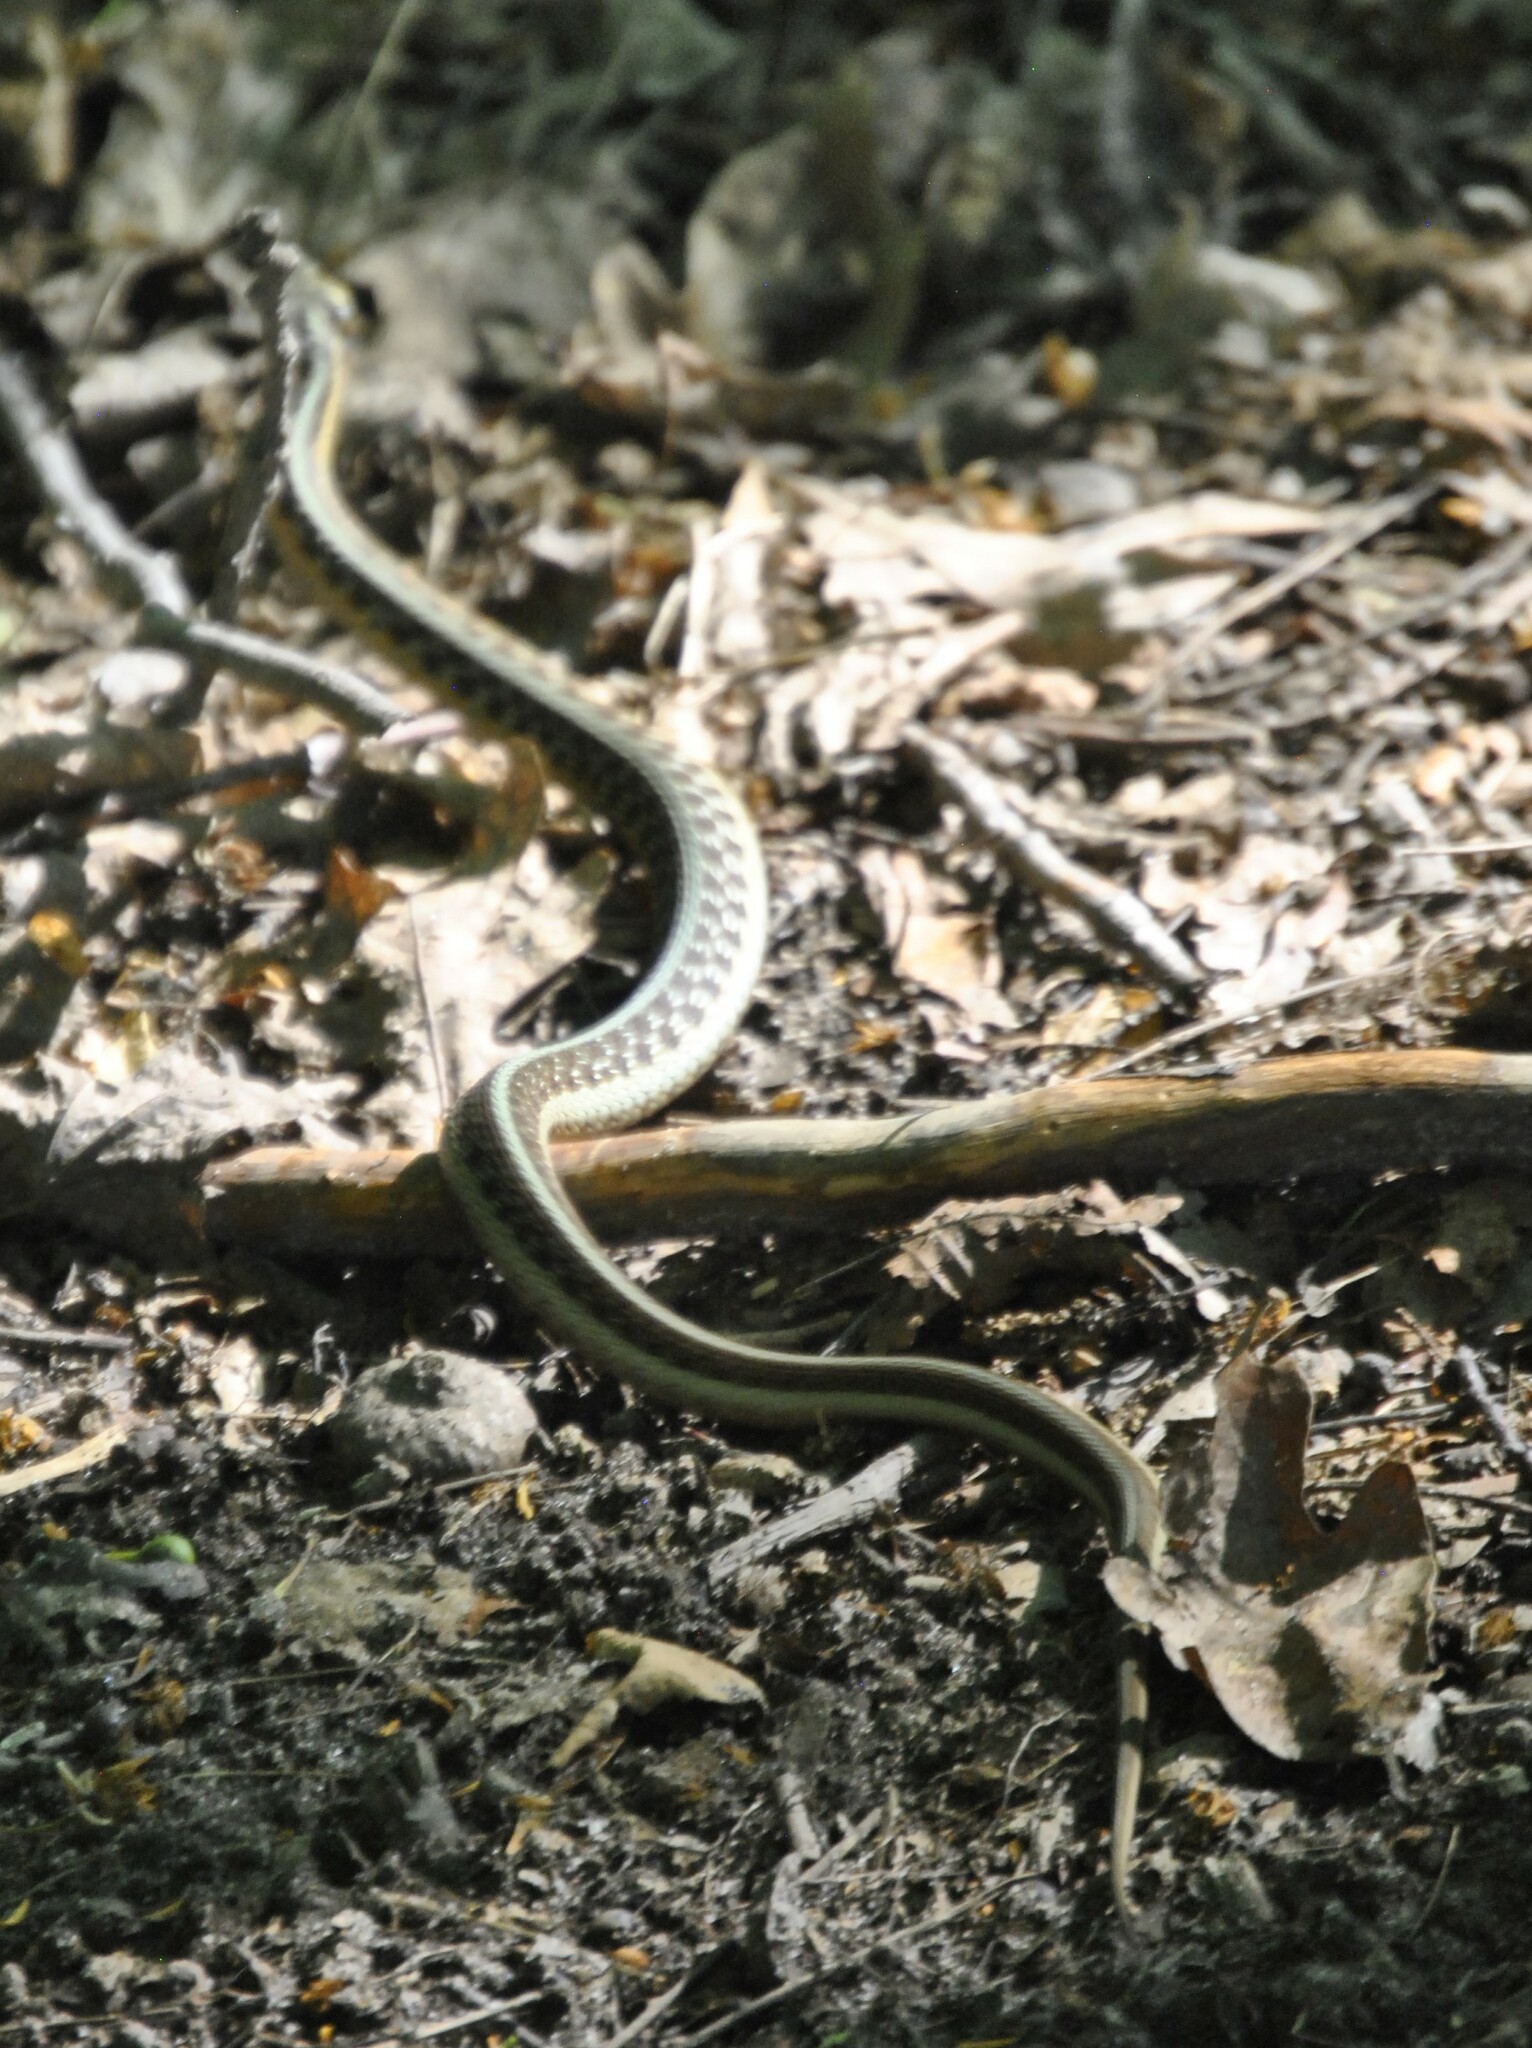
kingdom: Animalia
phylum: Chordata
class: Squamata
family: Colubridae
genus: Thamnophis
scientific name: Thamnophis sirtalis
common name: Common garter snake
